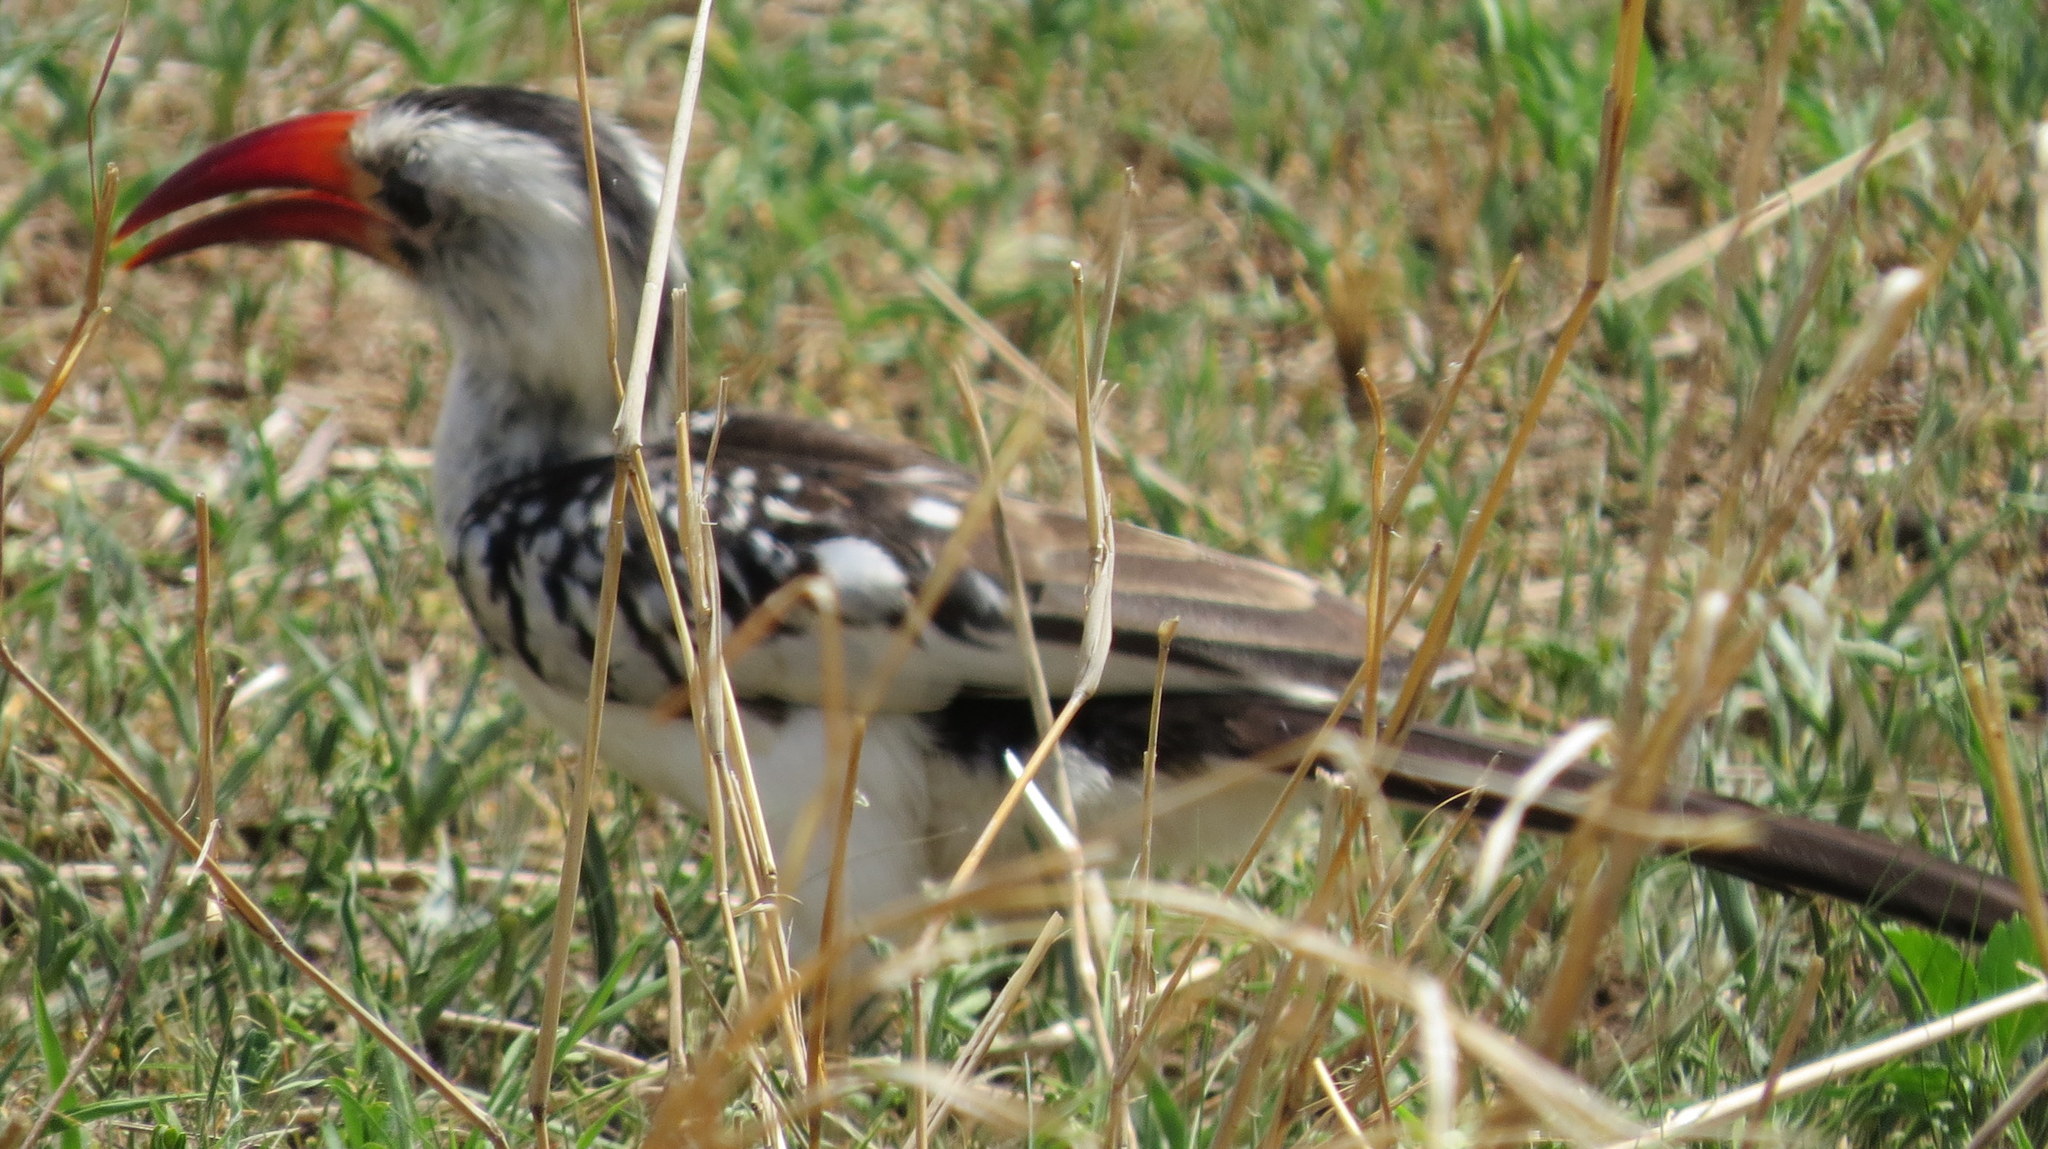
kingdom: Animalia
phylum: Chordata
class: Aves
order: Bucerotiformes
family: Bucerotidae
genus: Tockus
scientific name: Tockus erythrorhynchus
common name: Northern red-billed hornbill
